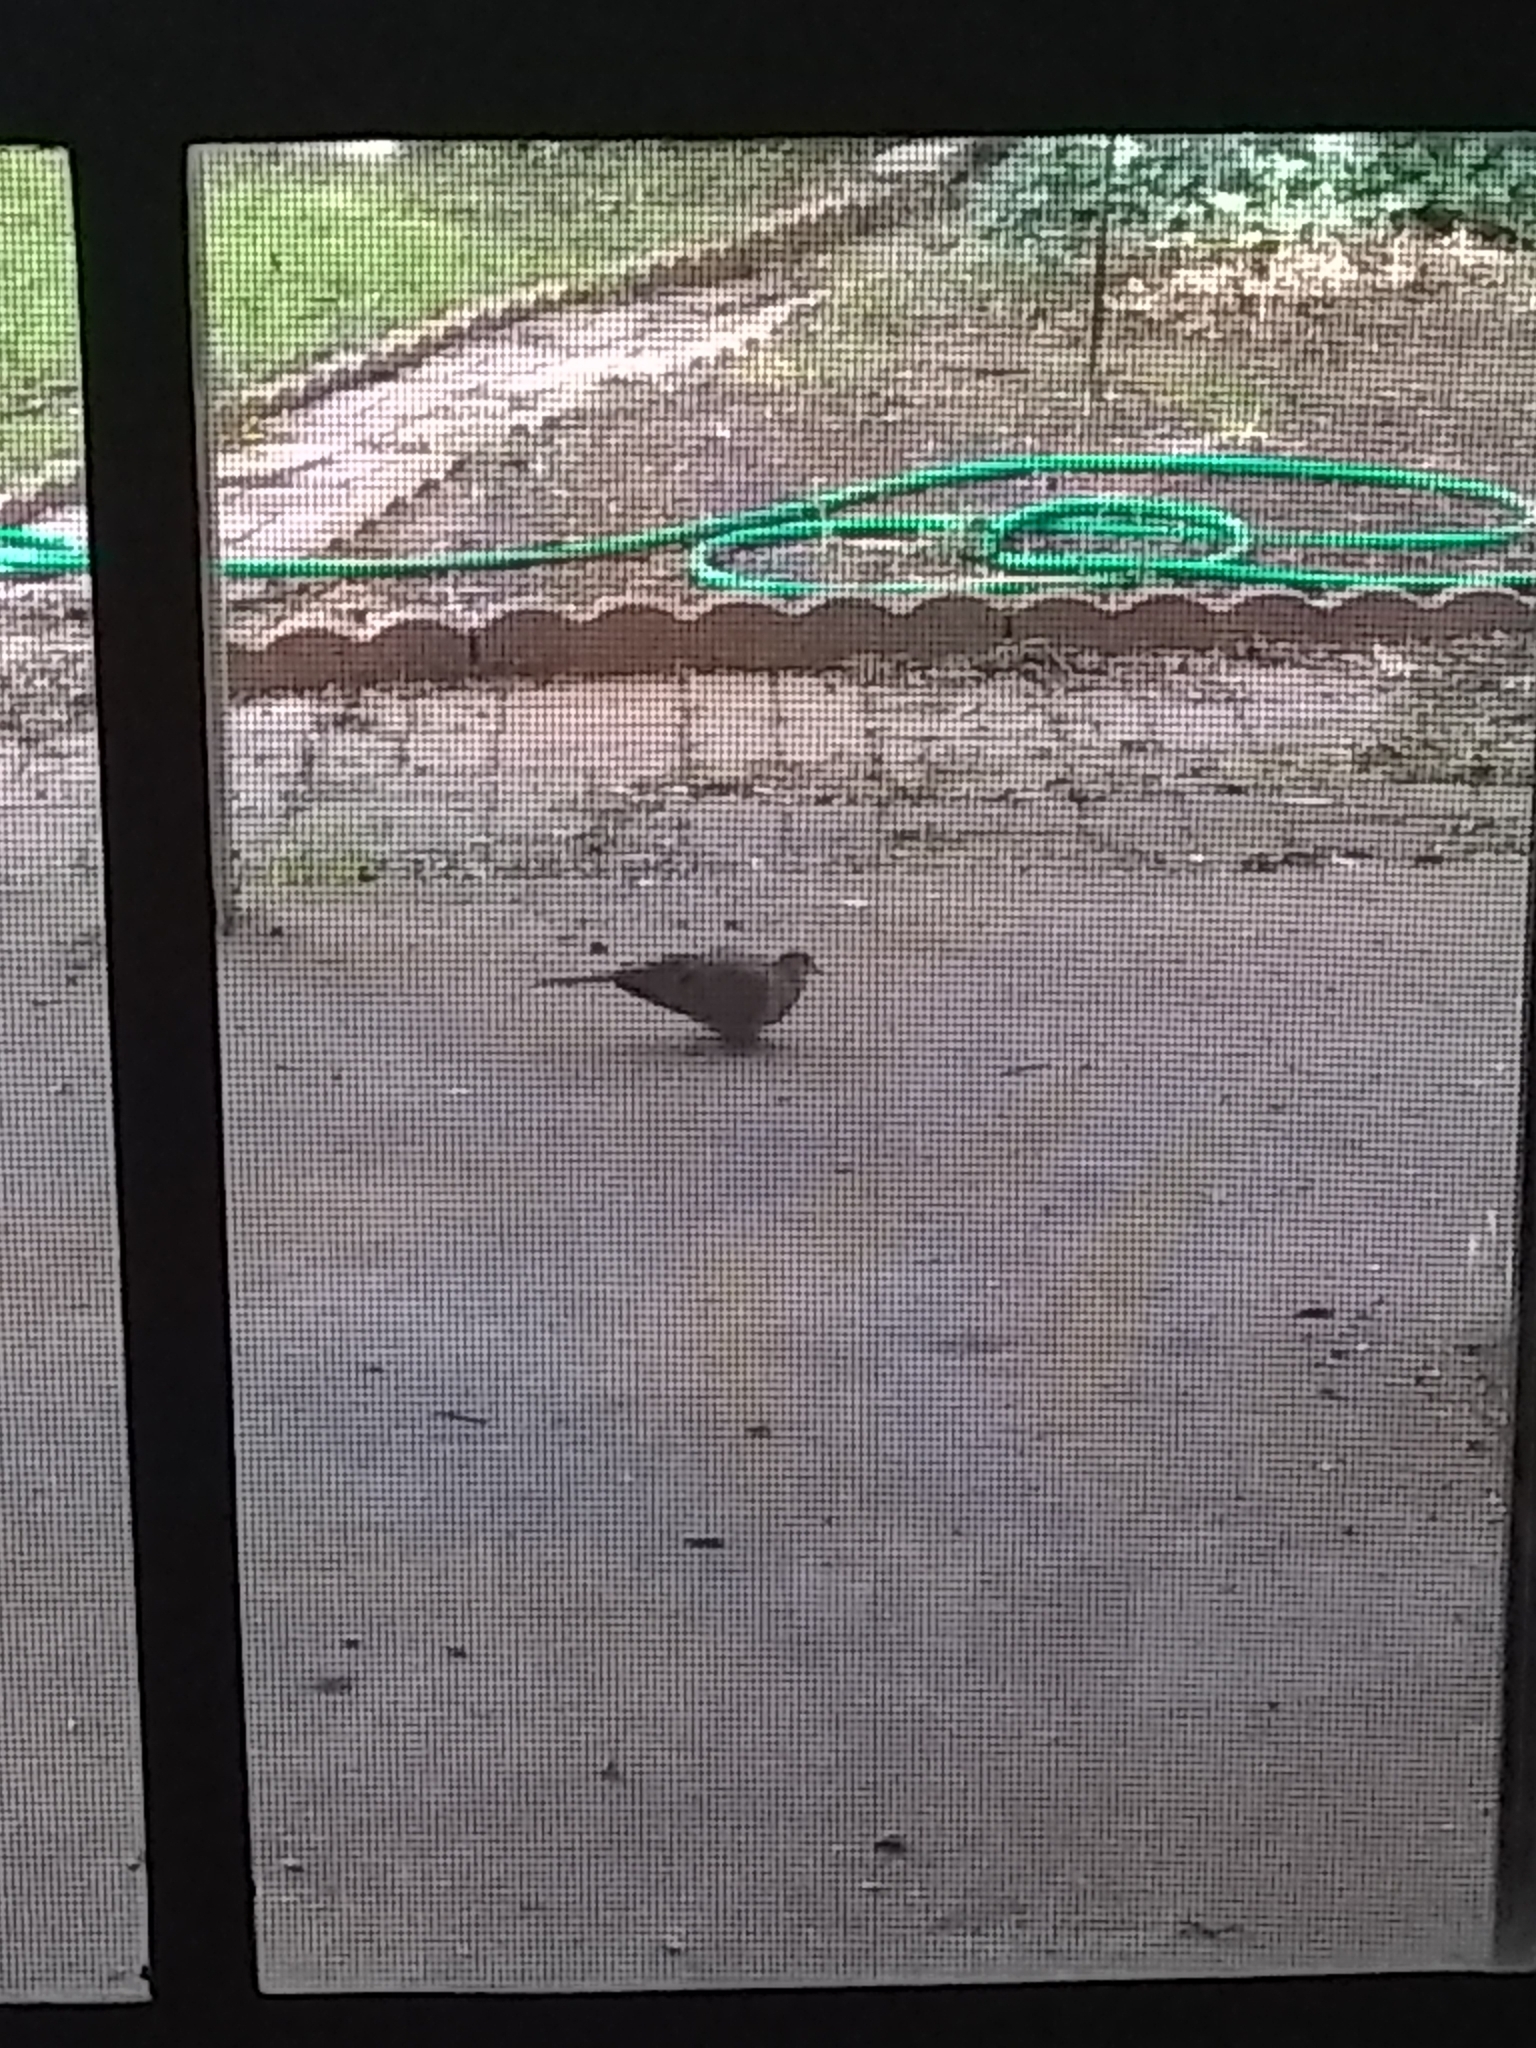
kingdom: Animalia
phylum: Chordata
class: Aves
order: Columbiformes
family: Columbidae
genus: Zenaida
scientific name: Zenaida macroura
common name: Mourning dove
